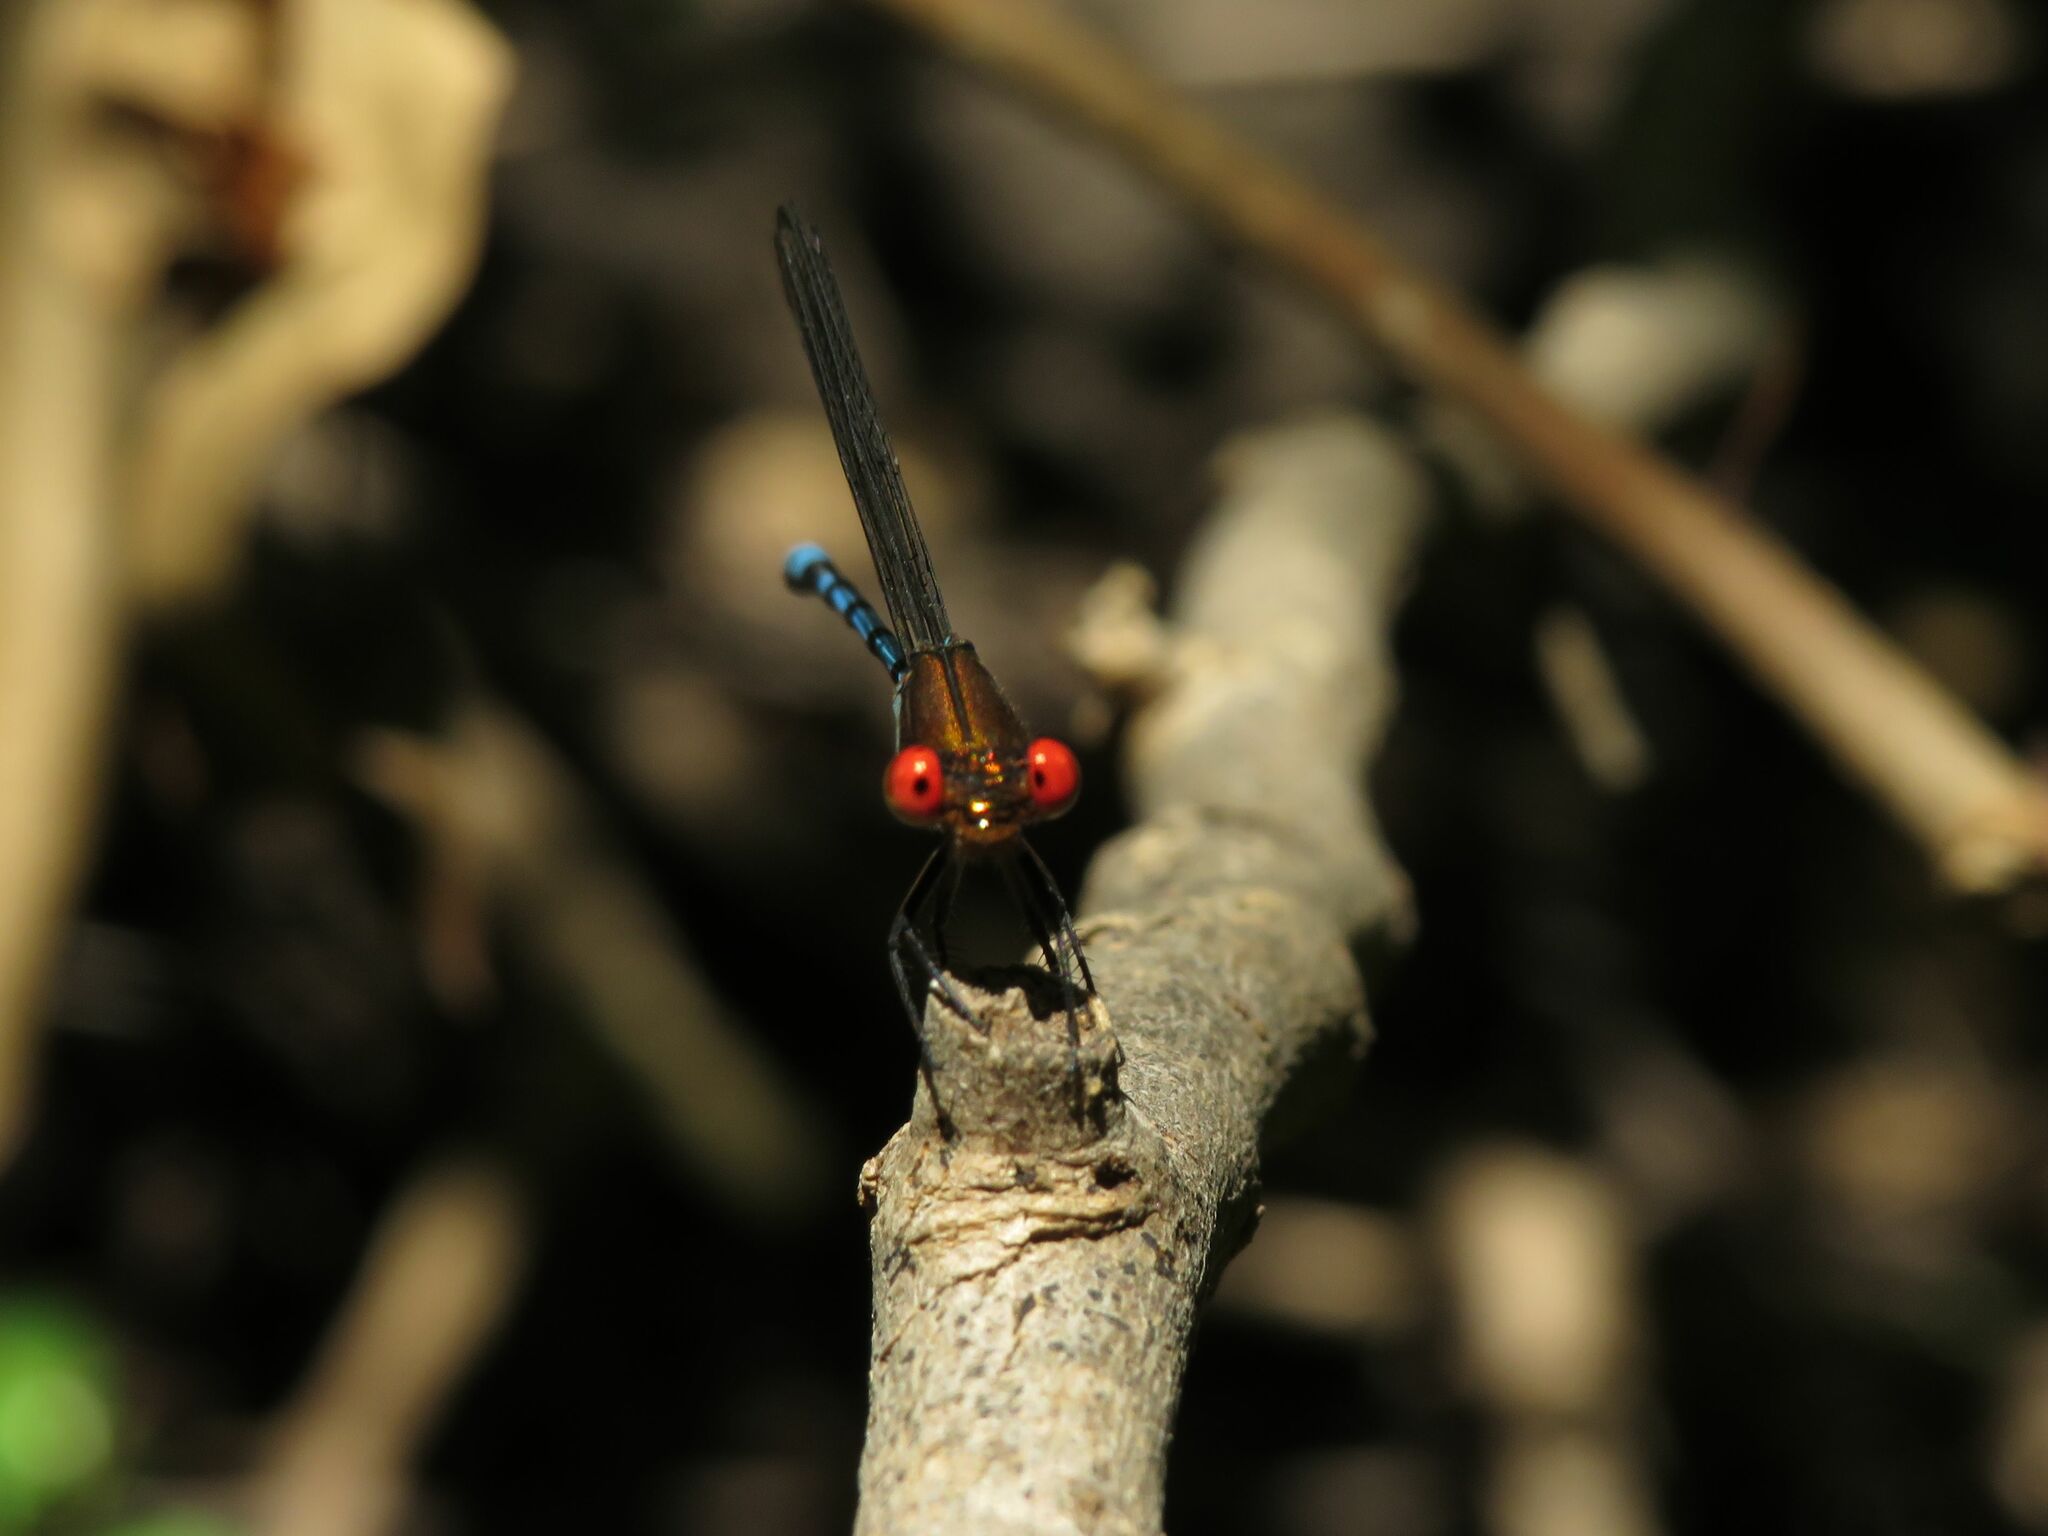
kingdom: Animalia
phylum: Arthropoda
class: Insecta
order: Odonata
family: Coenagrionidae
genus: Argia
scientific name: Argia joergenseni
